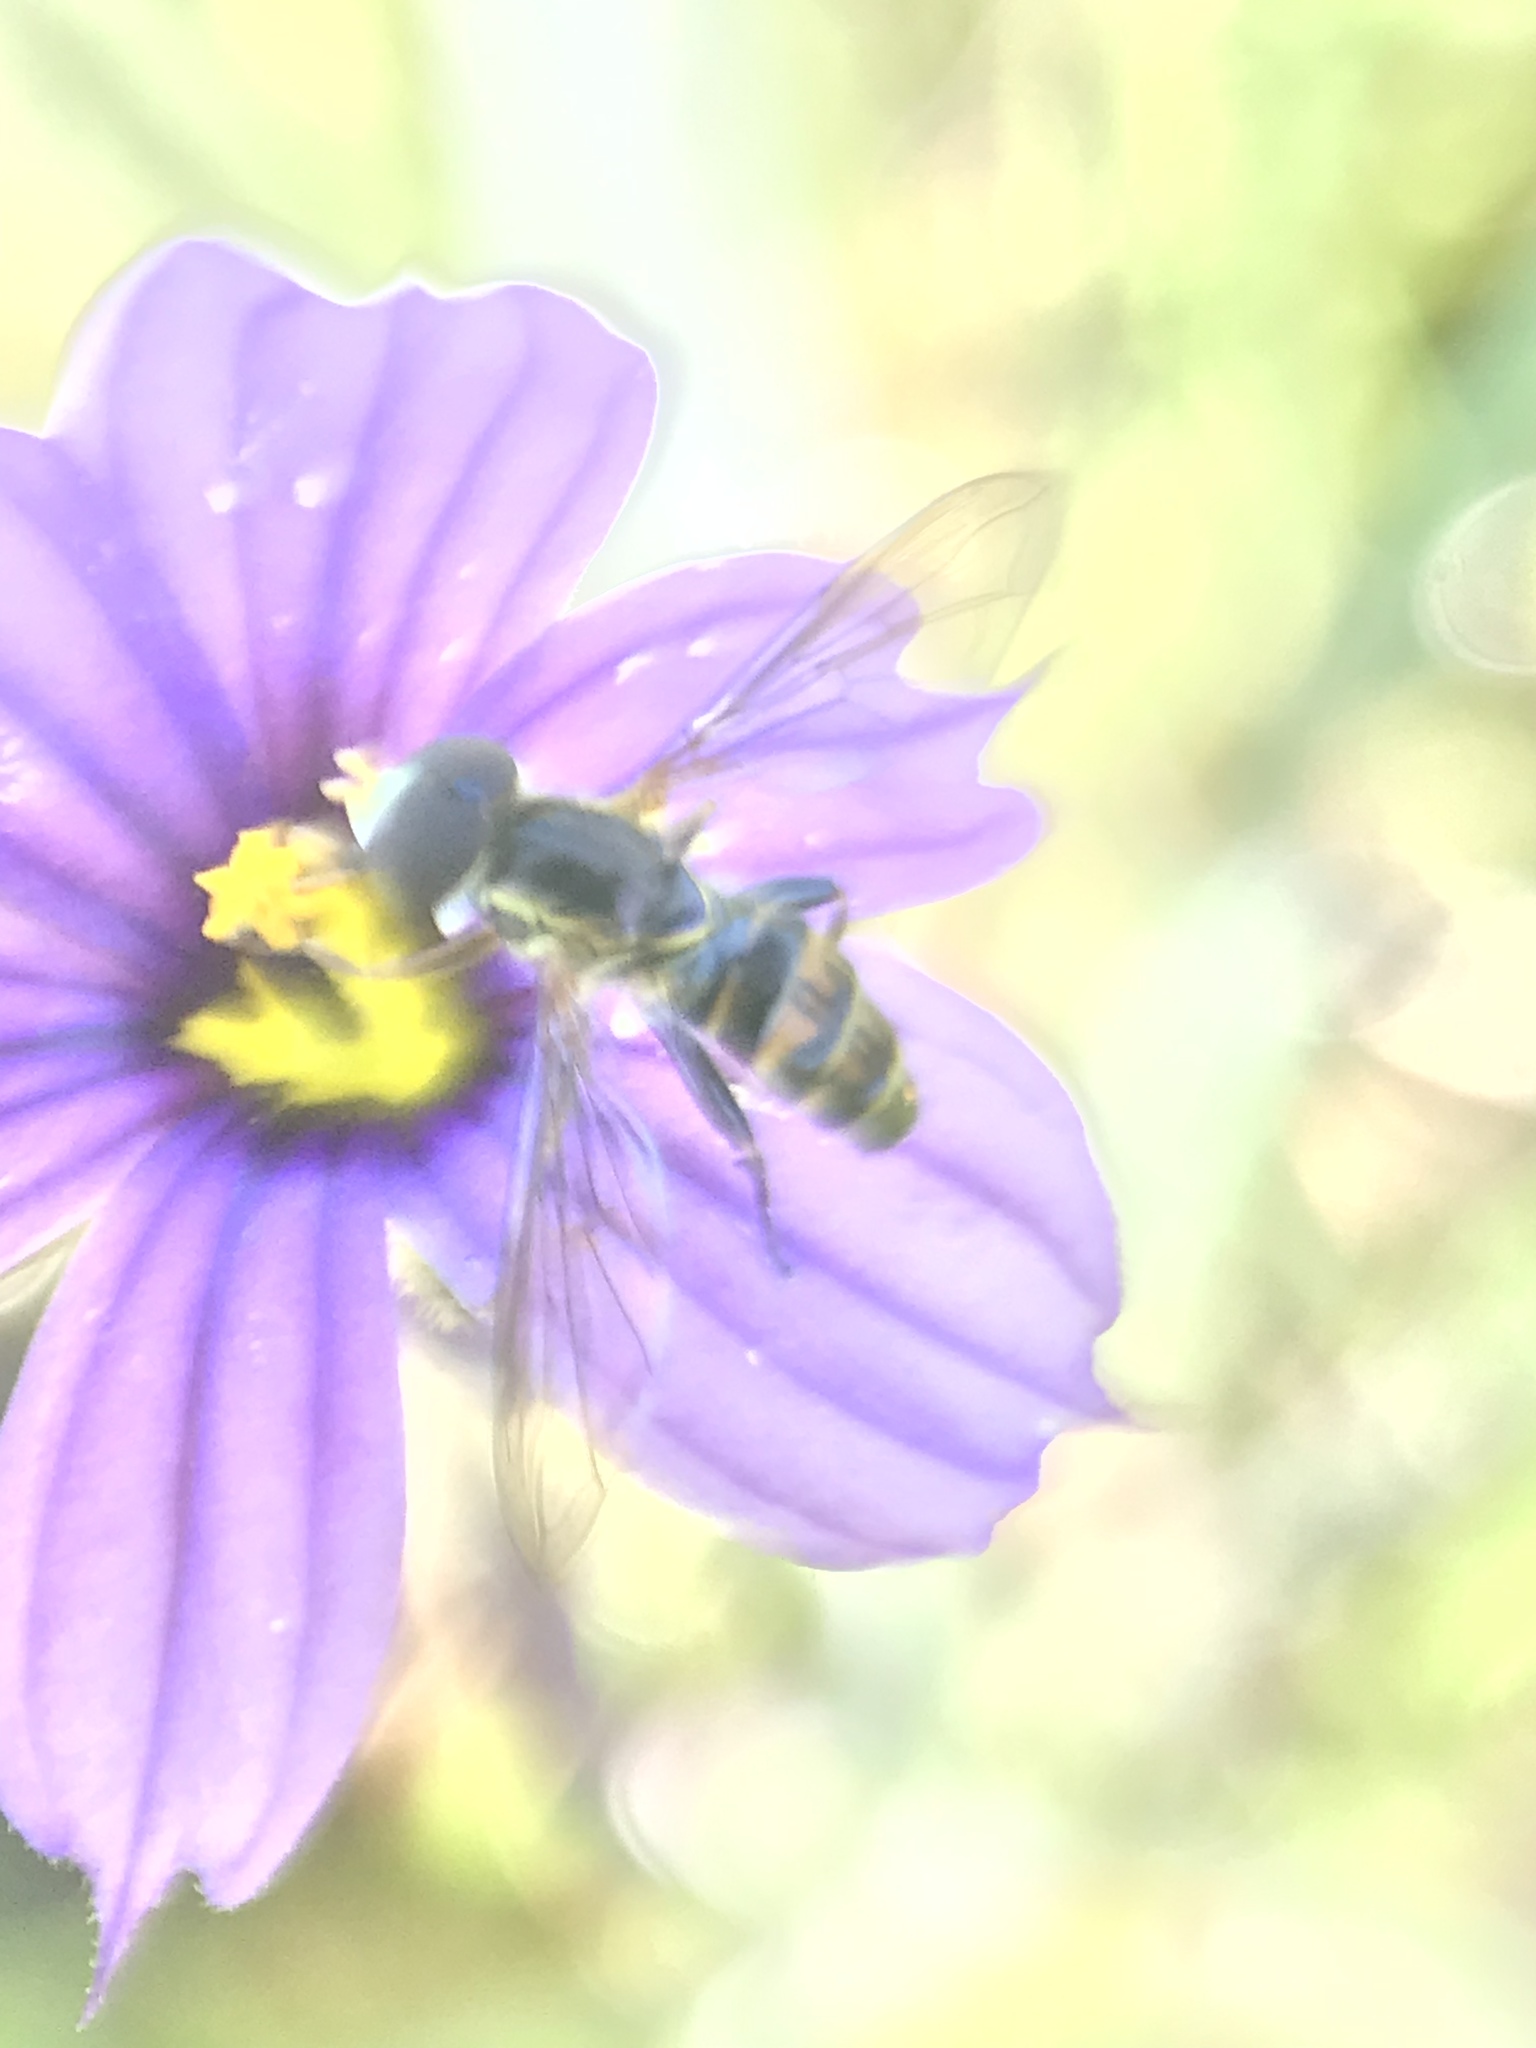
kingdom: Animalia
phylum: Arthropoda
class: Insecta
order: Diptera
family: Syrphidae
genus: Toxomerus
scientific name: Toxomerus occidentalis
